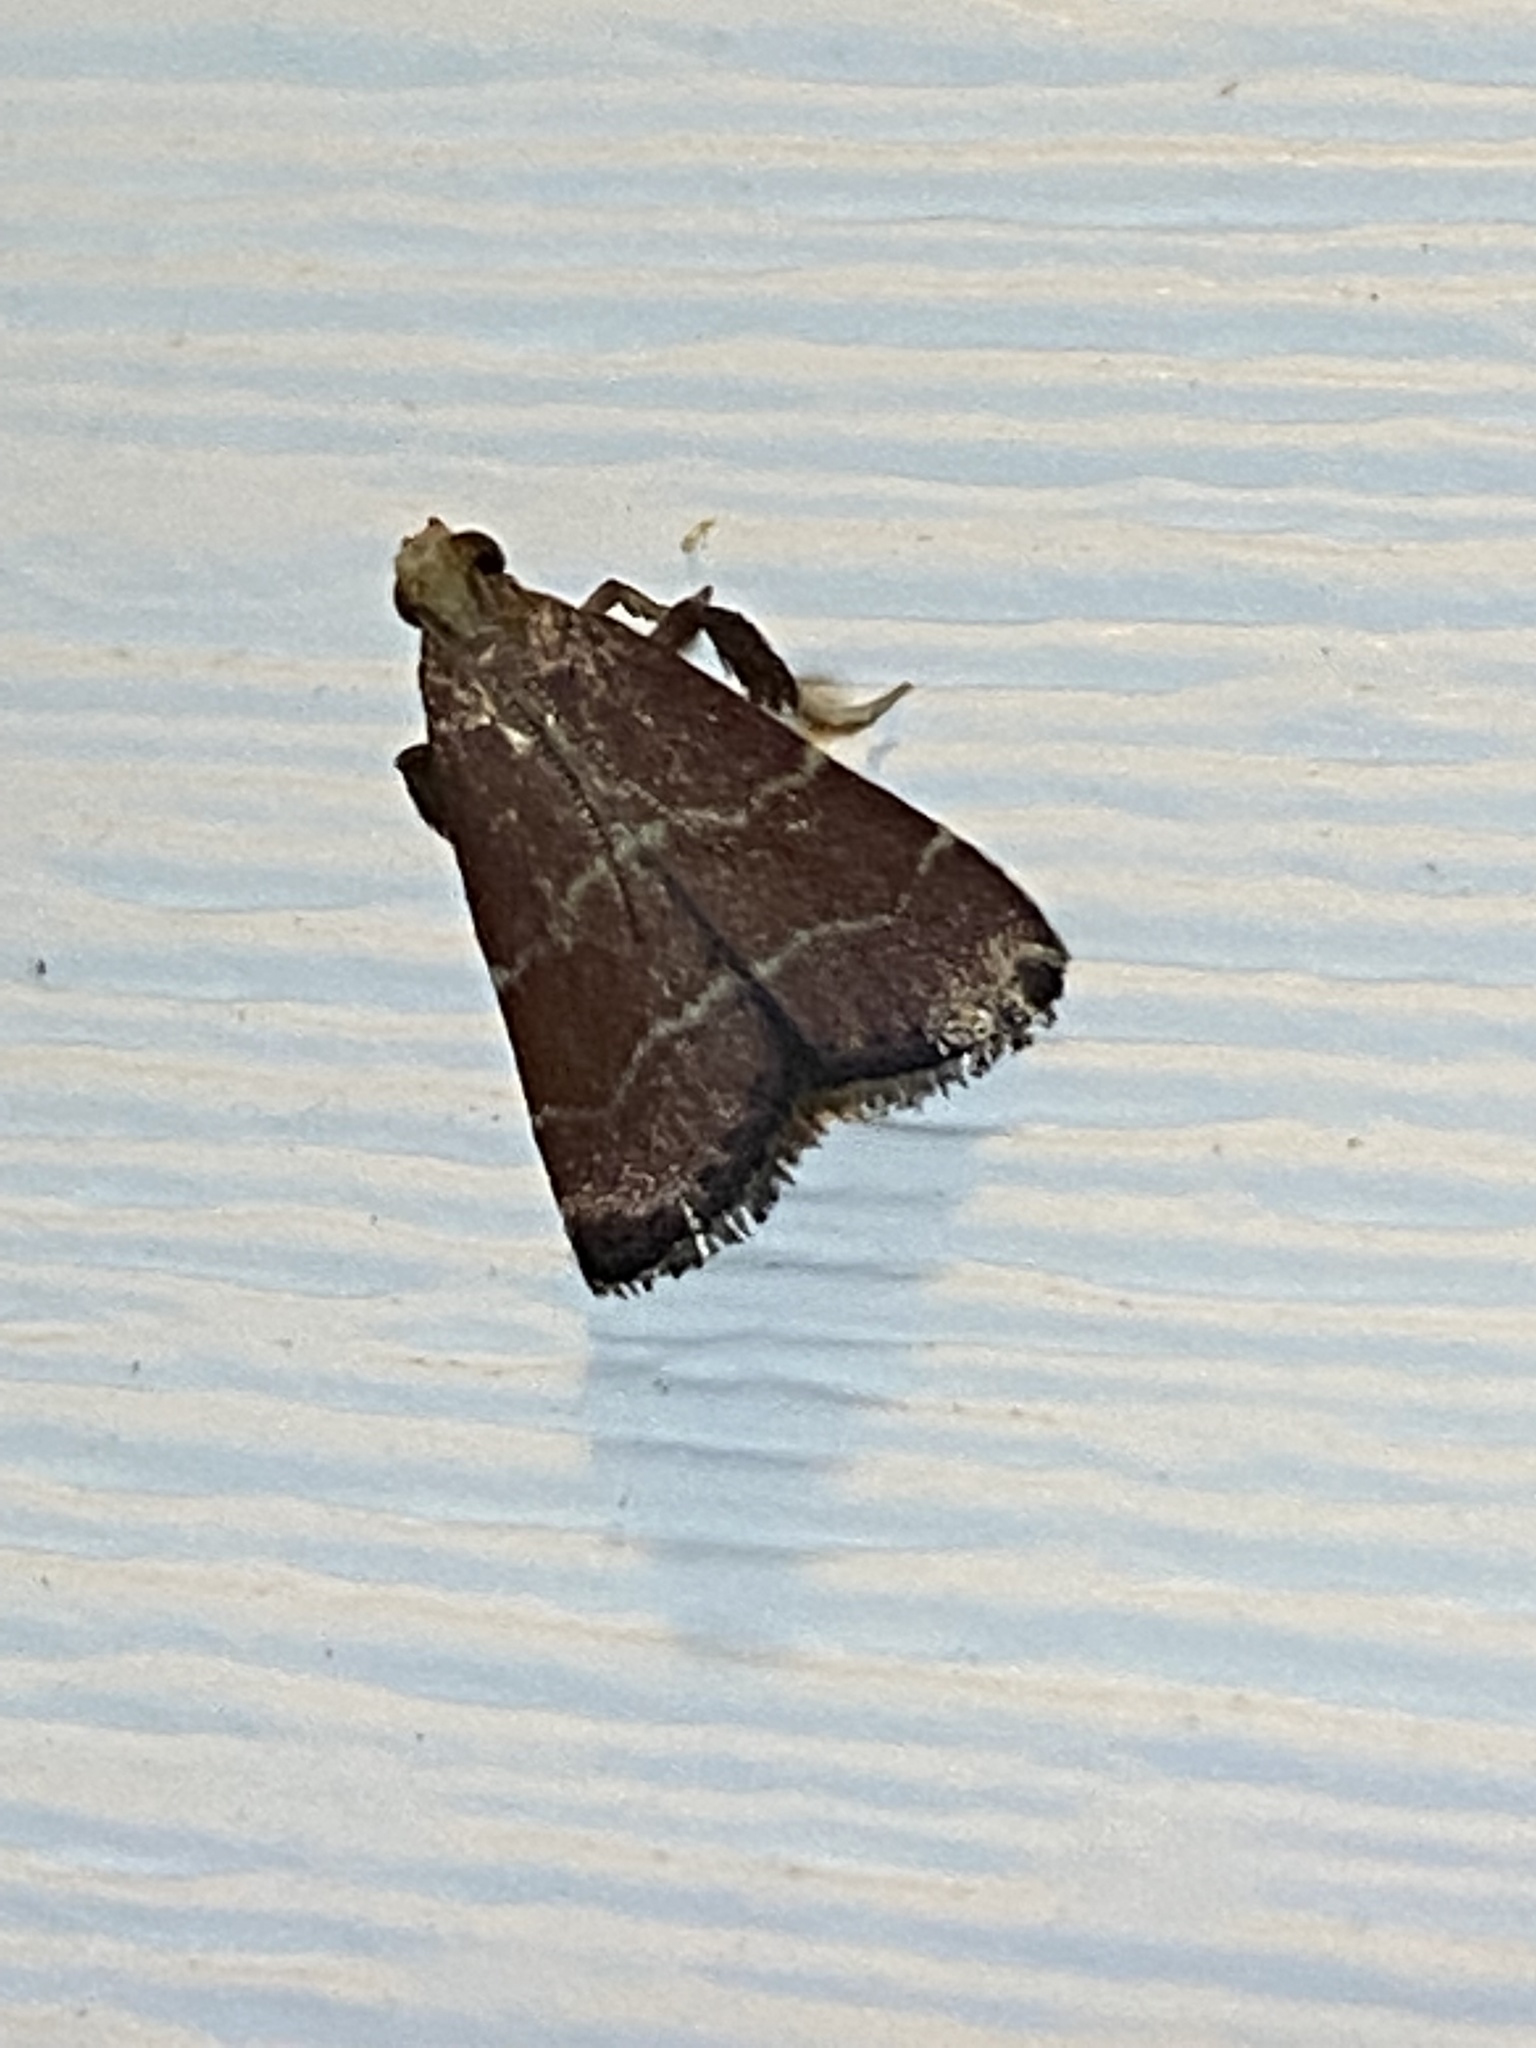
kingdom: Animalia
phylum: Arthropoda
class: Insecta
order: Lepidoptera
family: Pyralidae
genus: Arta
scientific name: Arta statalis
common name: Posturing arta moth
